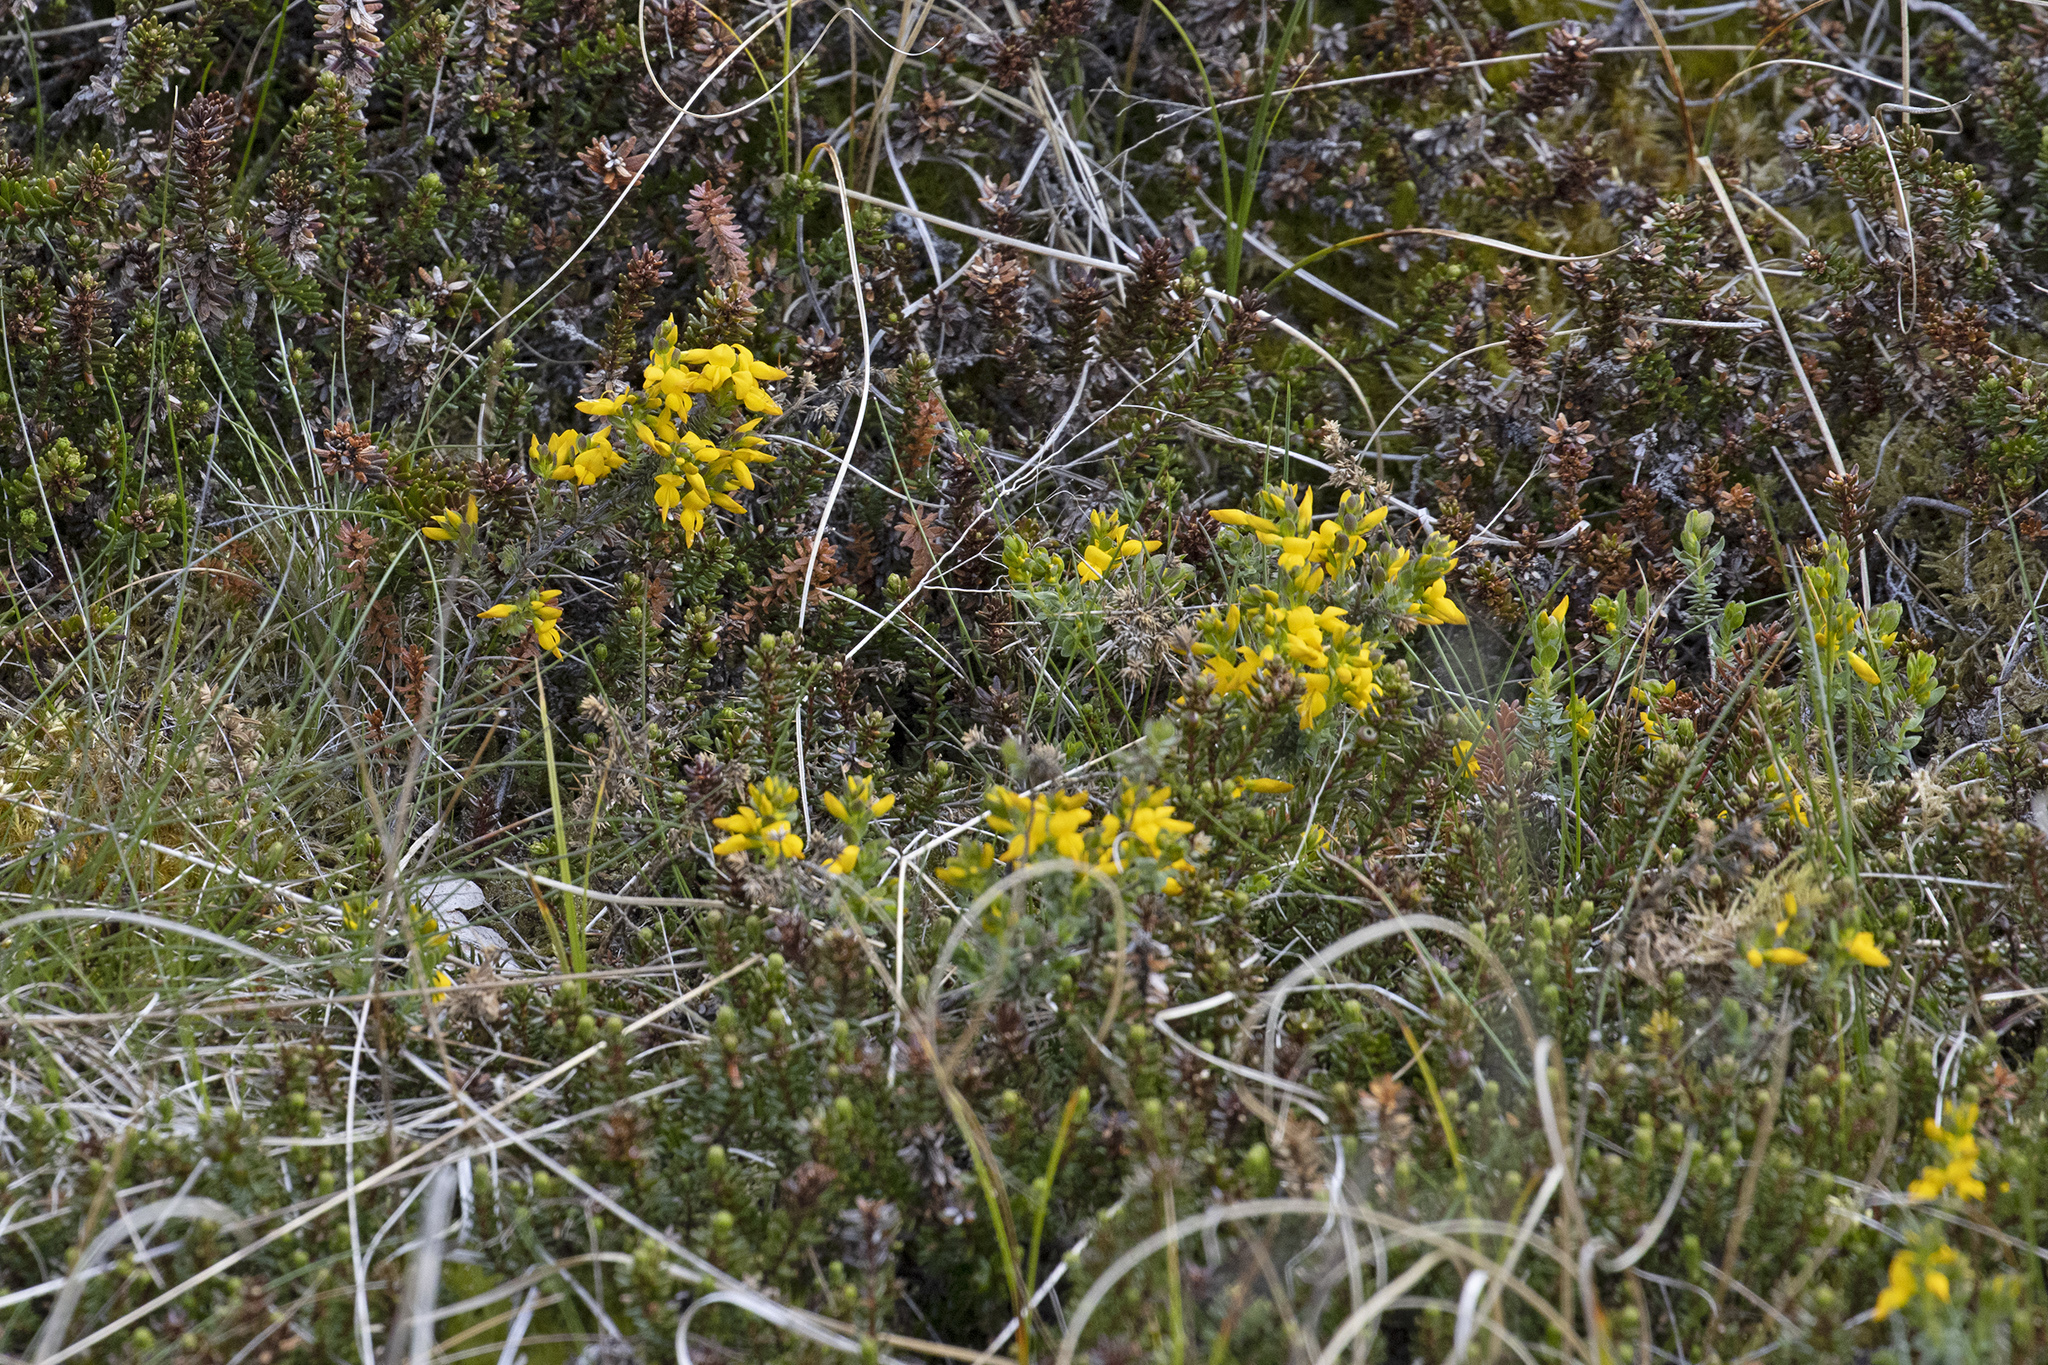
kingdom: Plantae
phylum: Tracheophyta
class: Magnoliopsida
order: Fabales
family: Fabaceae
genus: Genista
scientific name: Genista anglica
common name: Petty whin
